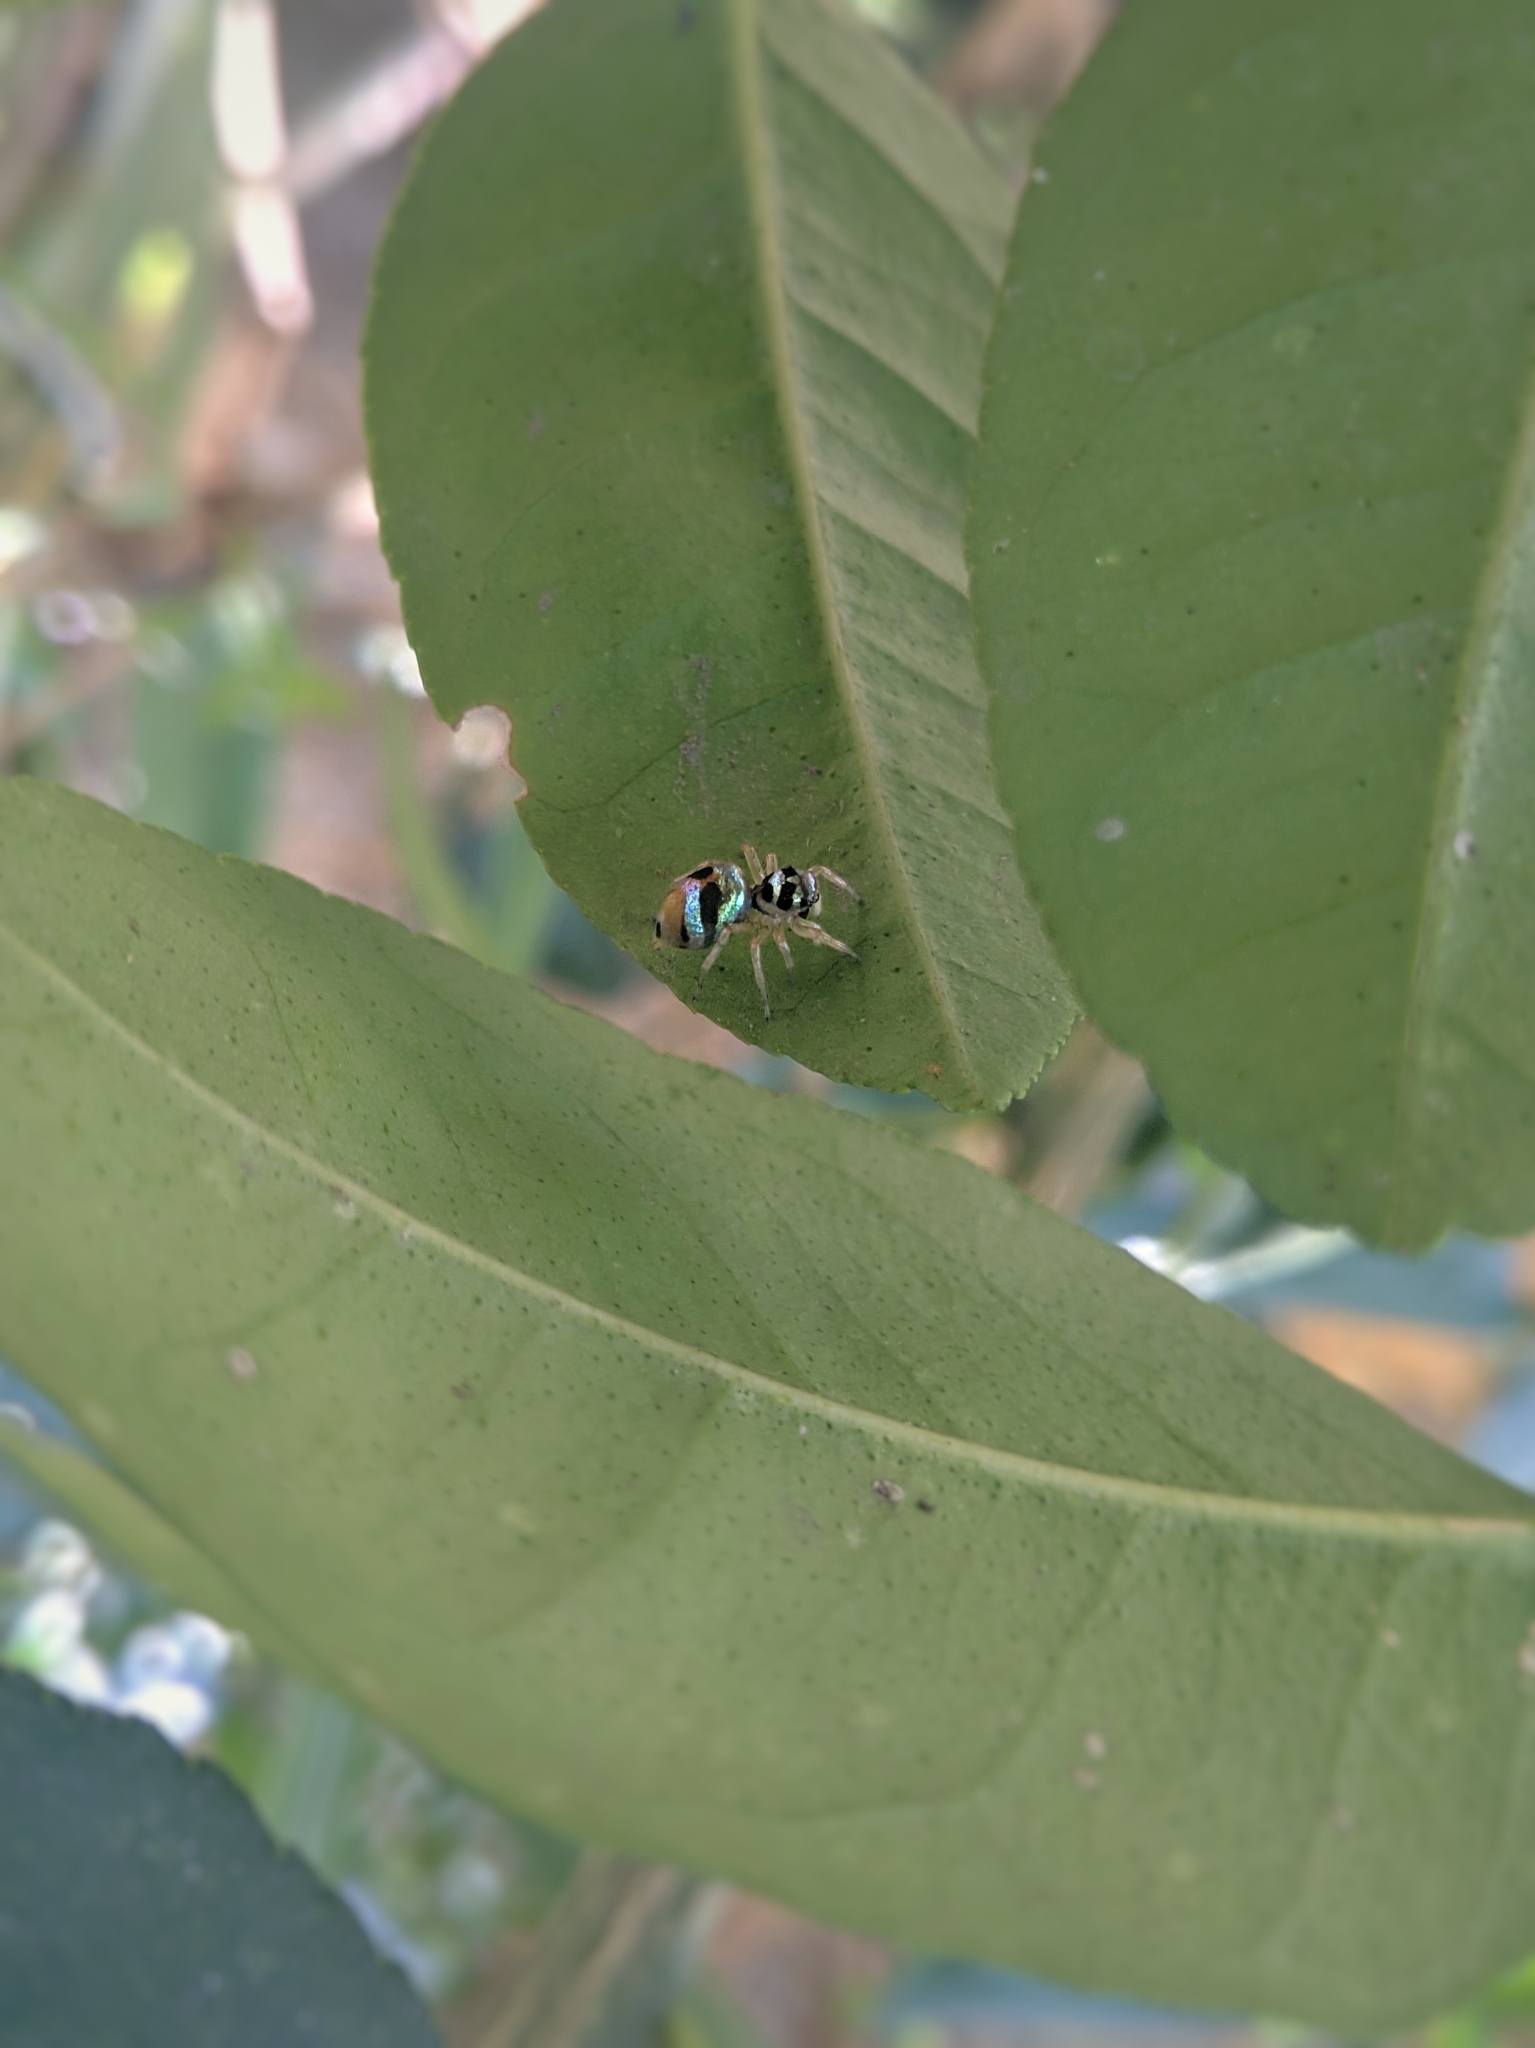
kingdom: Animalia
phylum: Arthropoda
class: Arachnida
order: Araneae
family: Salticidae
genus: Phintella
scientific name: Phintella vittata
